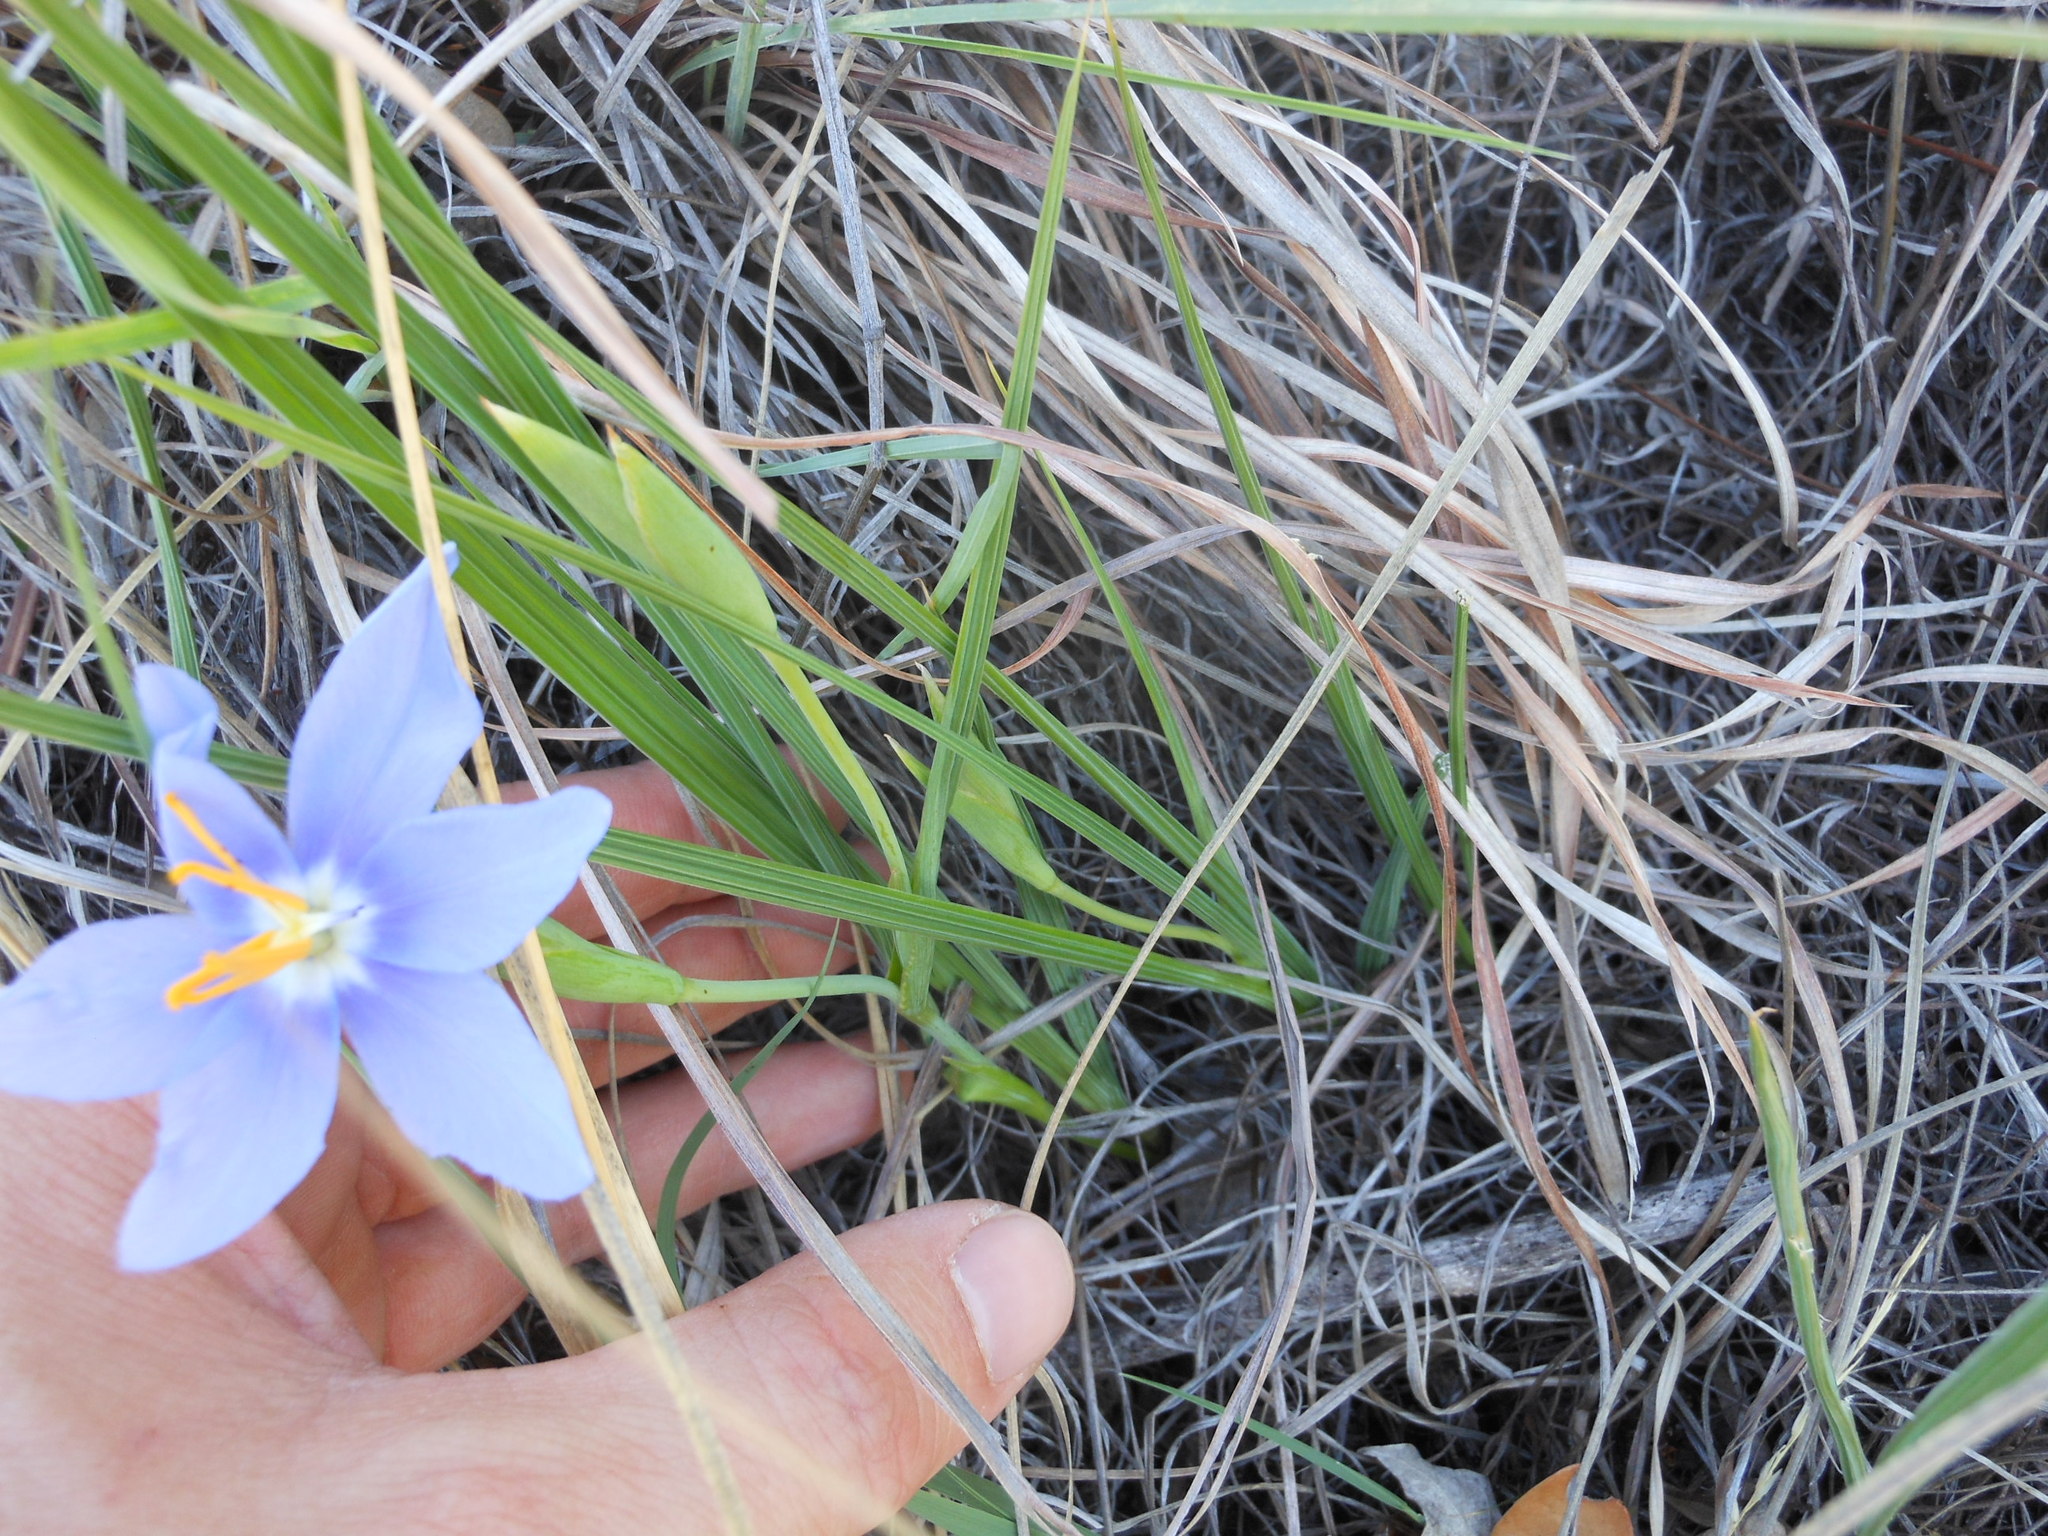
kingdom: Plantae
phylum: Tracheophyta
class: Liliopsida
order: Asparagales
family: Iridaceae
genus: Nemastylis
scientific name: Nemastylis geminiflora
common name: Prairie celestial
